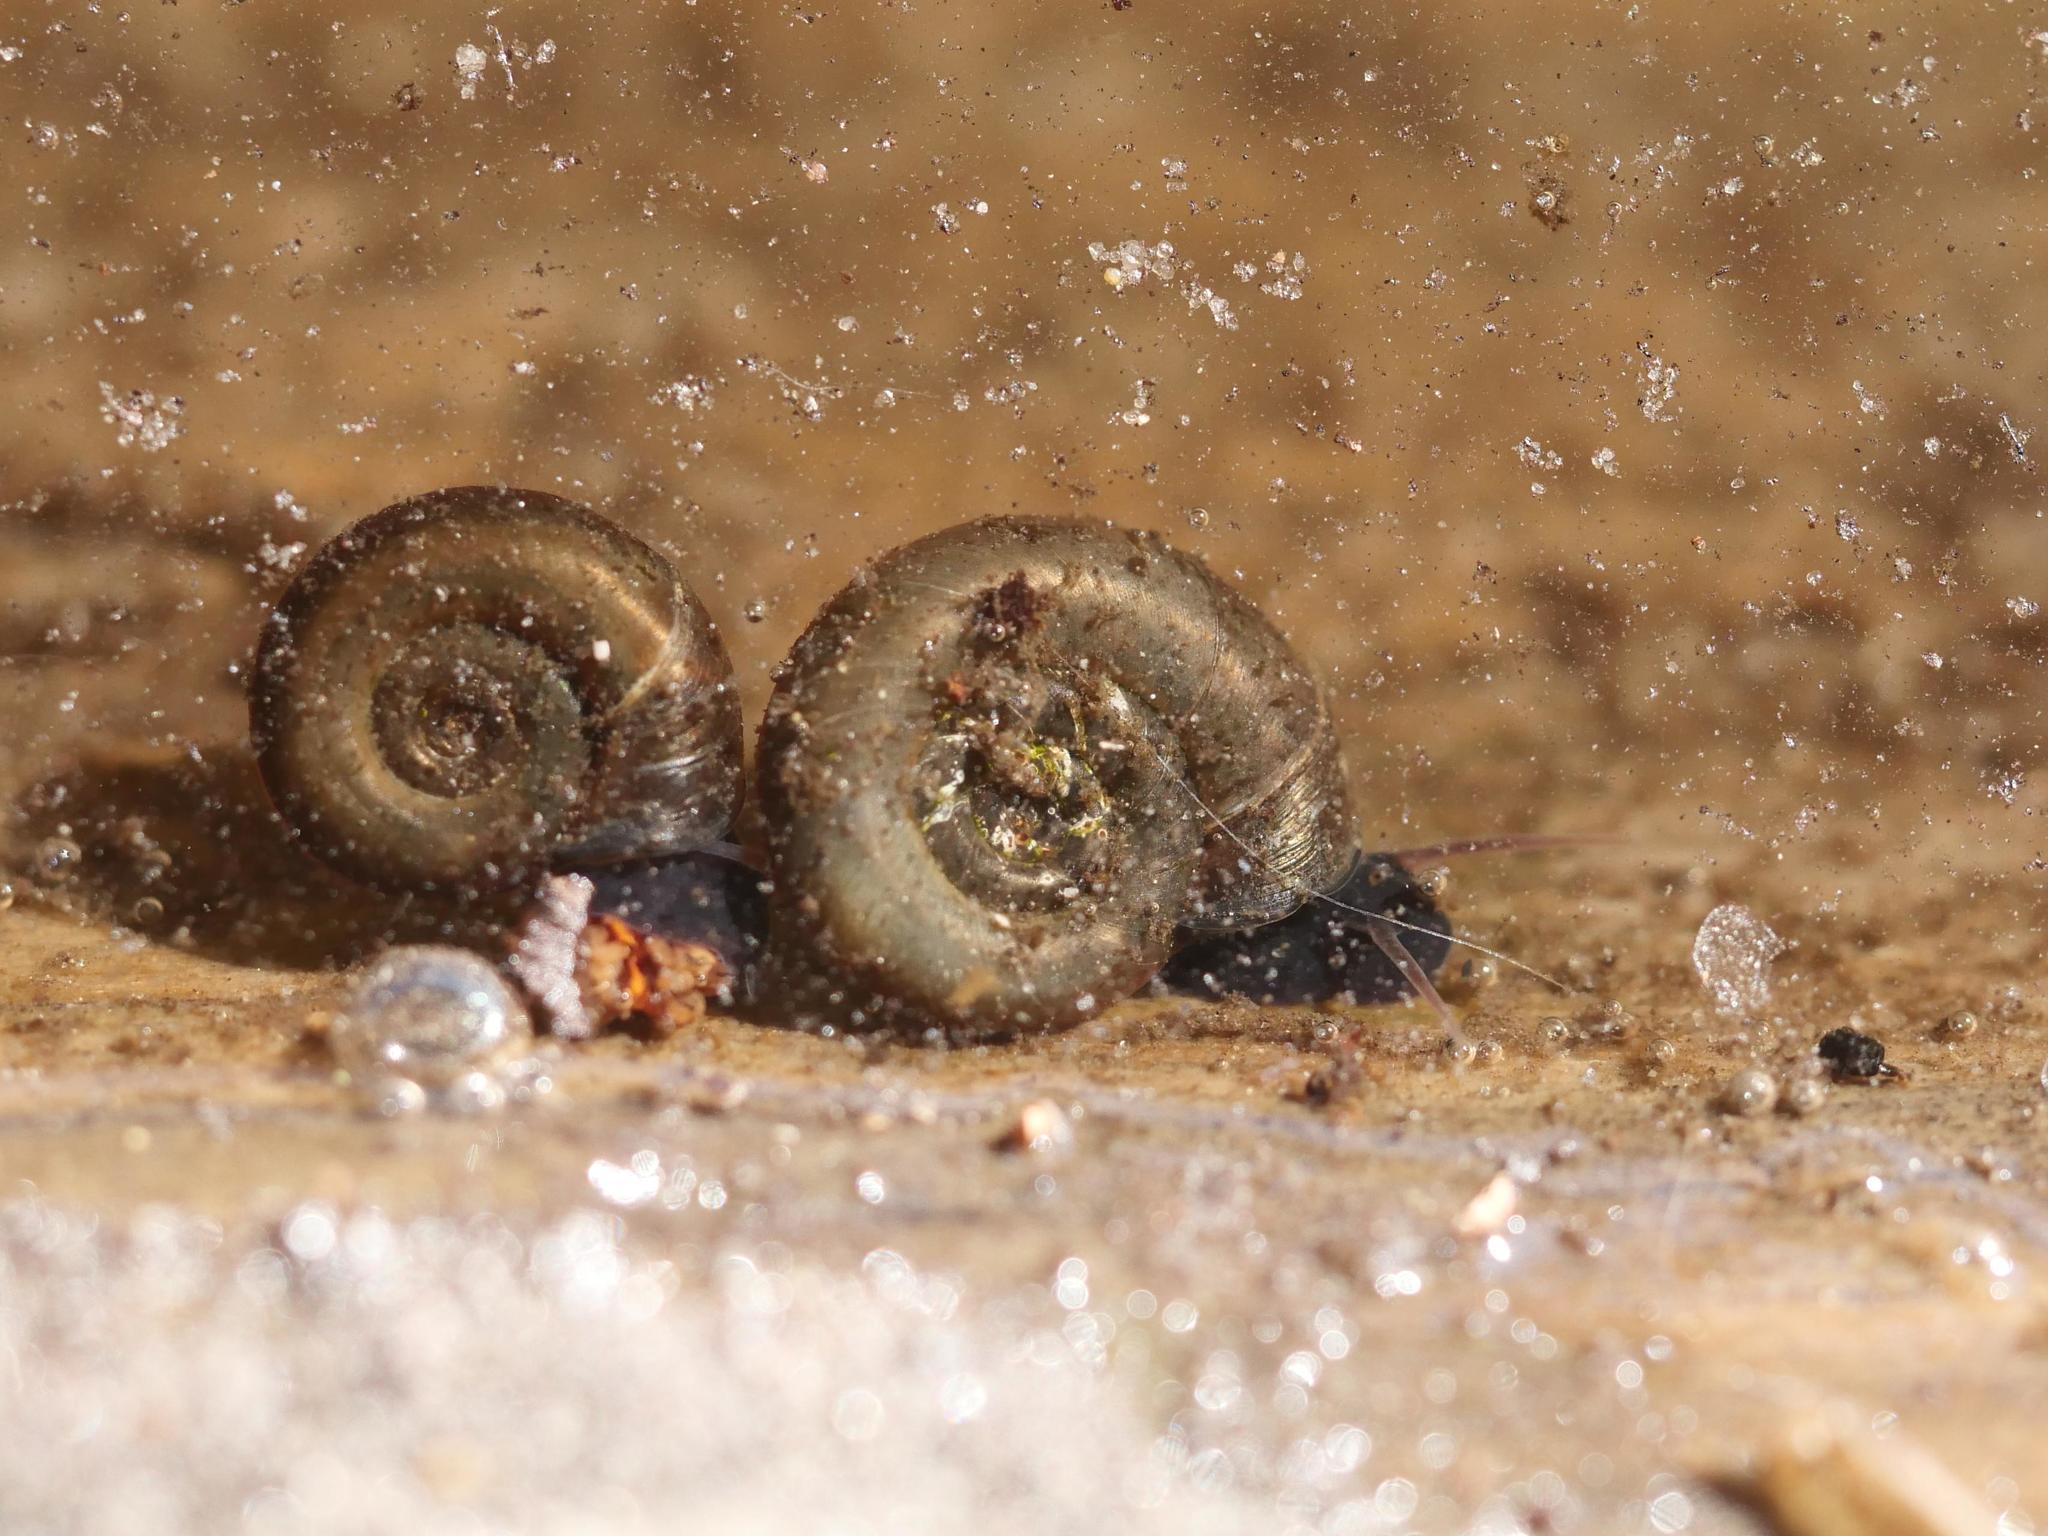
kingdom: Animalia
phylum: Mollusca
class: Gastropoda
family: Planorbidae
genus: Planorbarius
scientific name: Planorbarius corneus
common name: Great ramshorn
